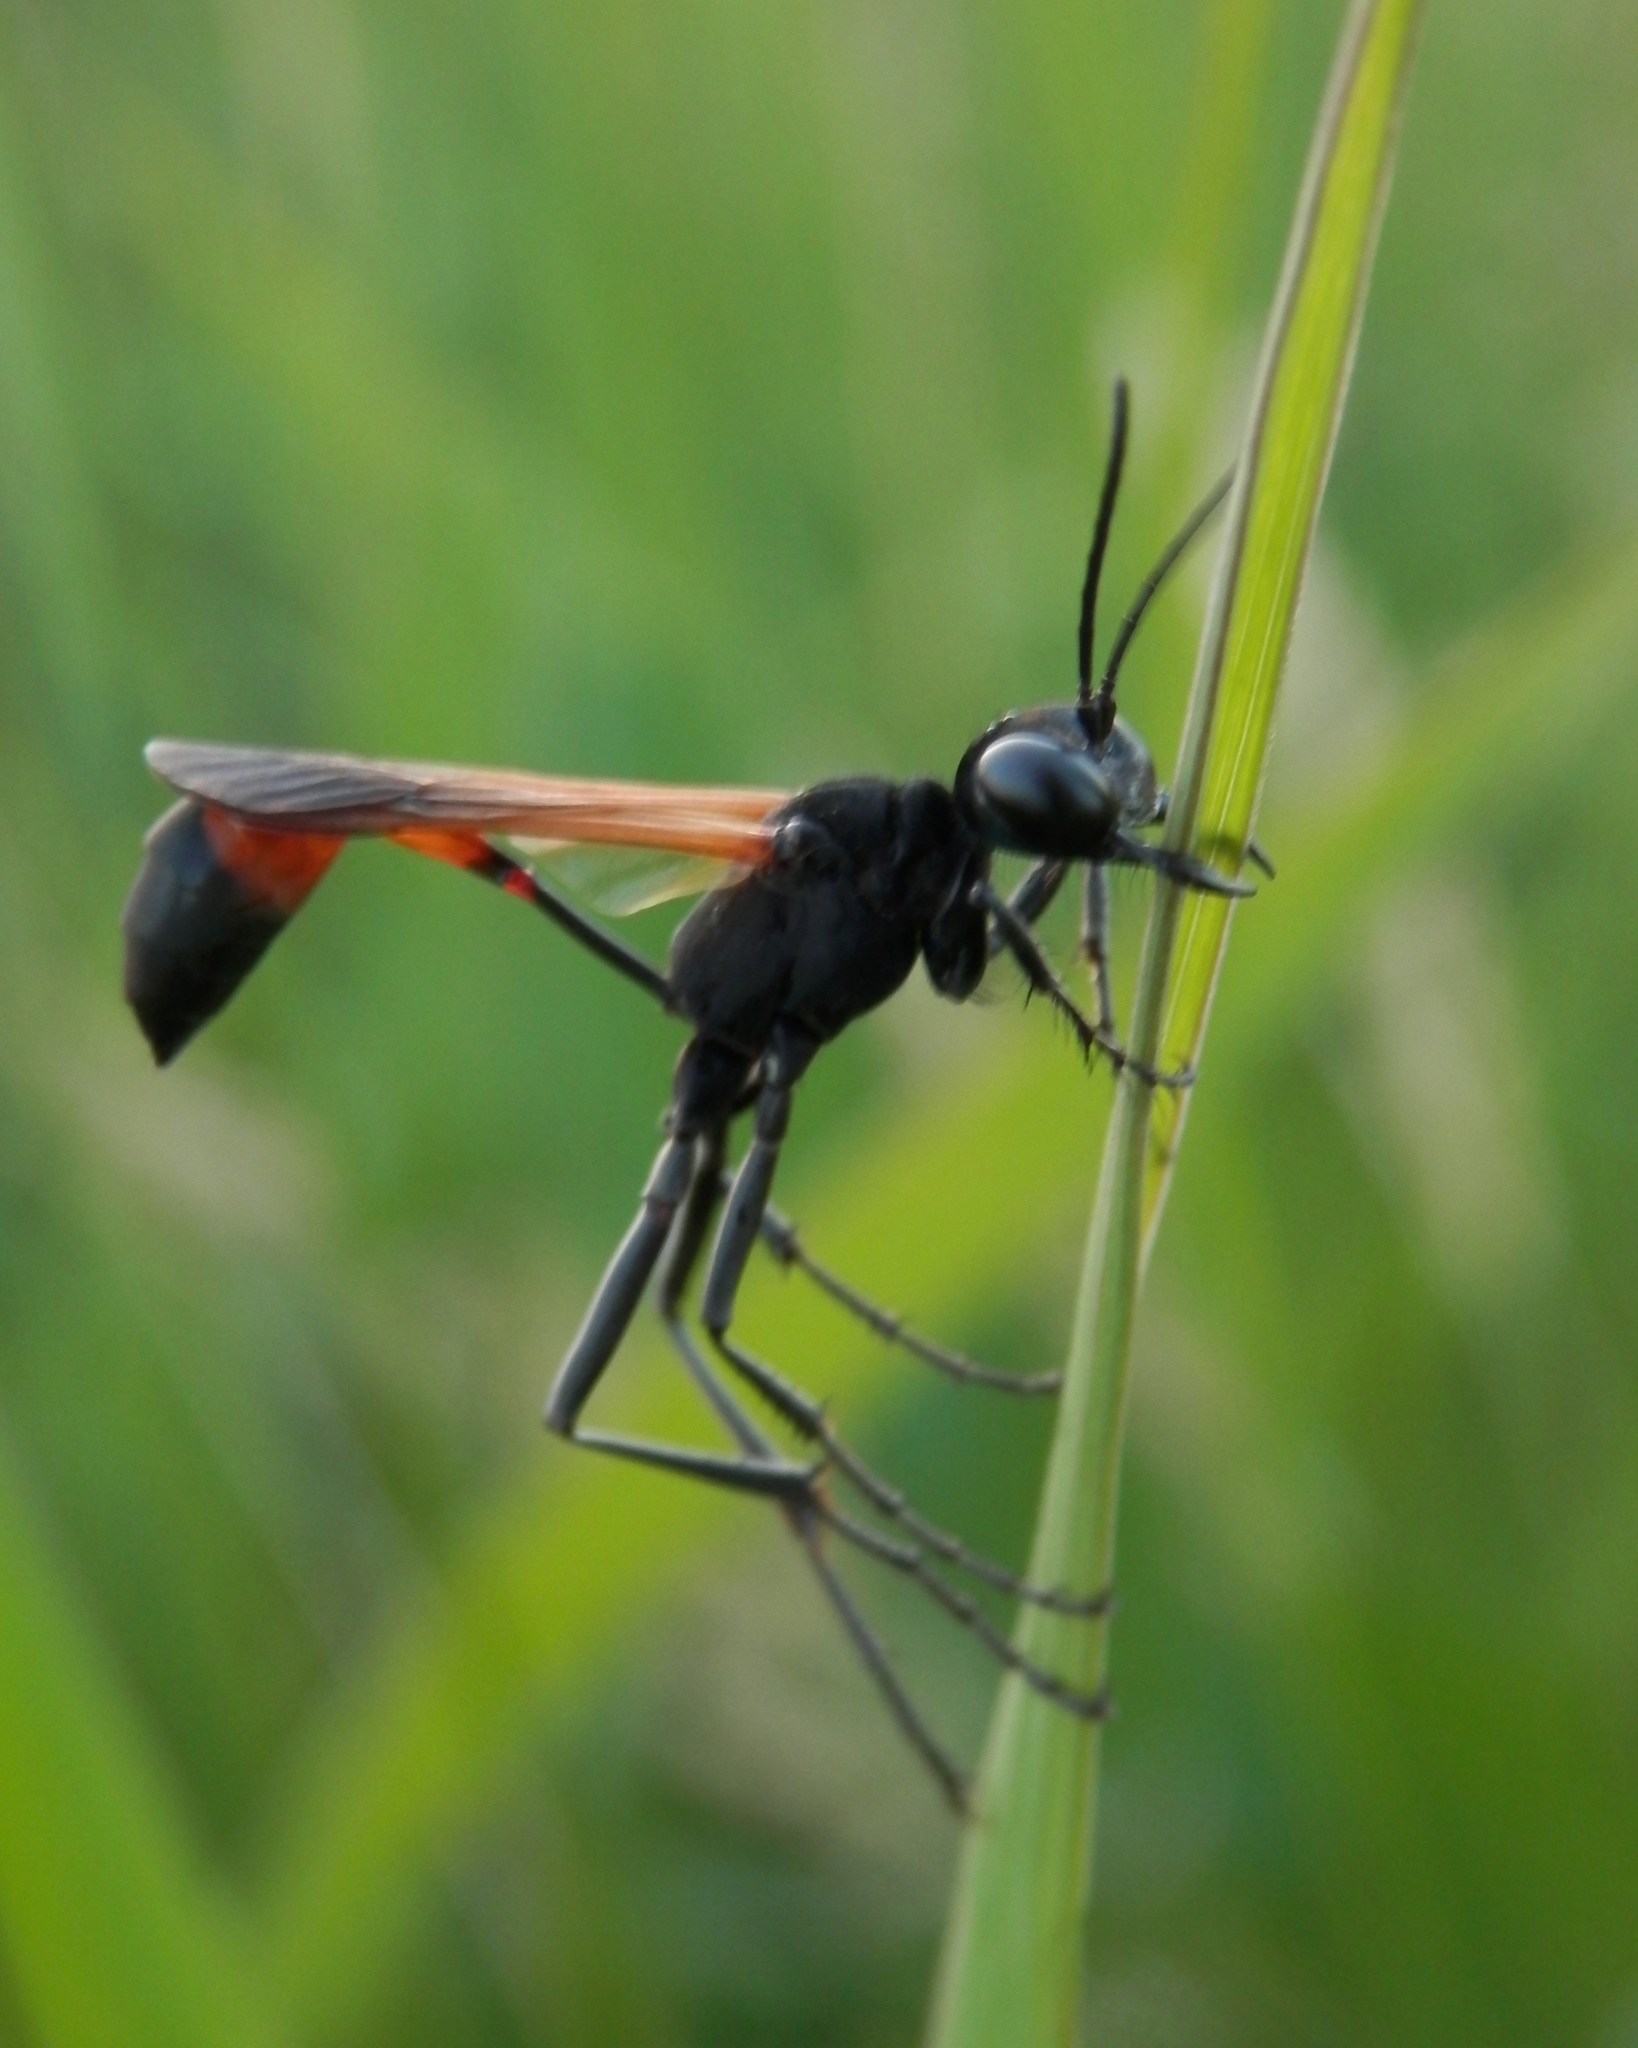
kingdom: Animalia
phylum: Arthropoda
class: Insecta
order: Hymenoptera
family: Sphecidae
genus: Ammophila
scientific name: Ammophila pictipennis
